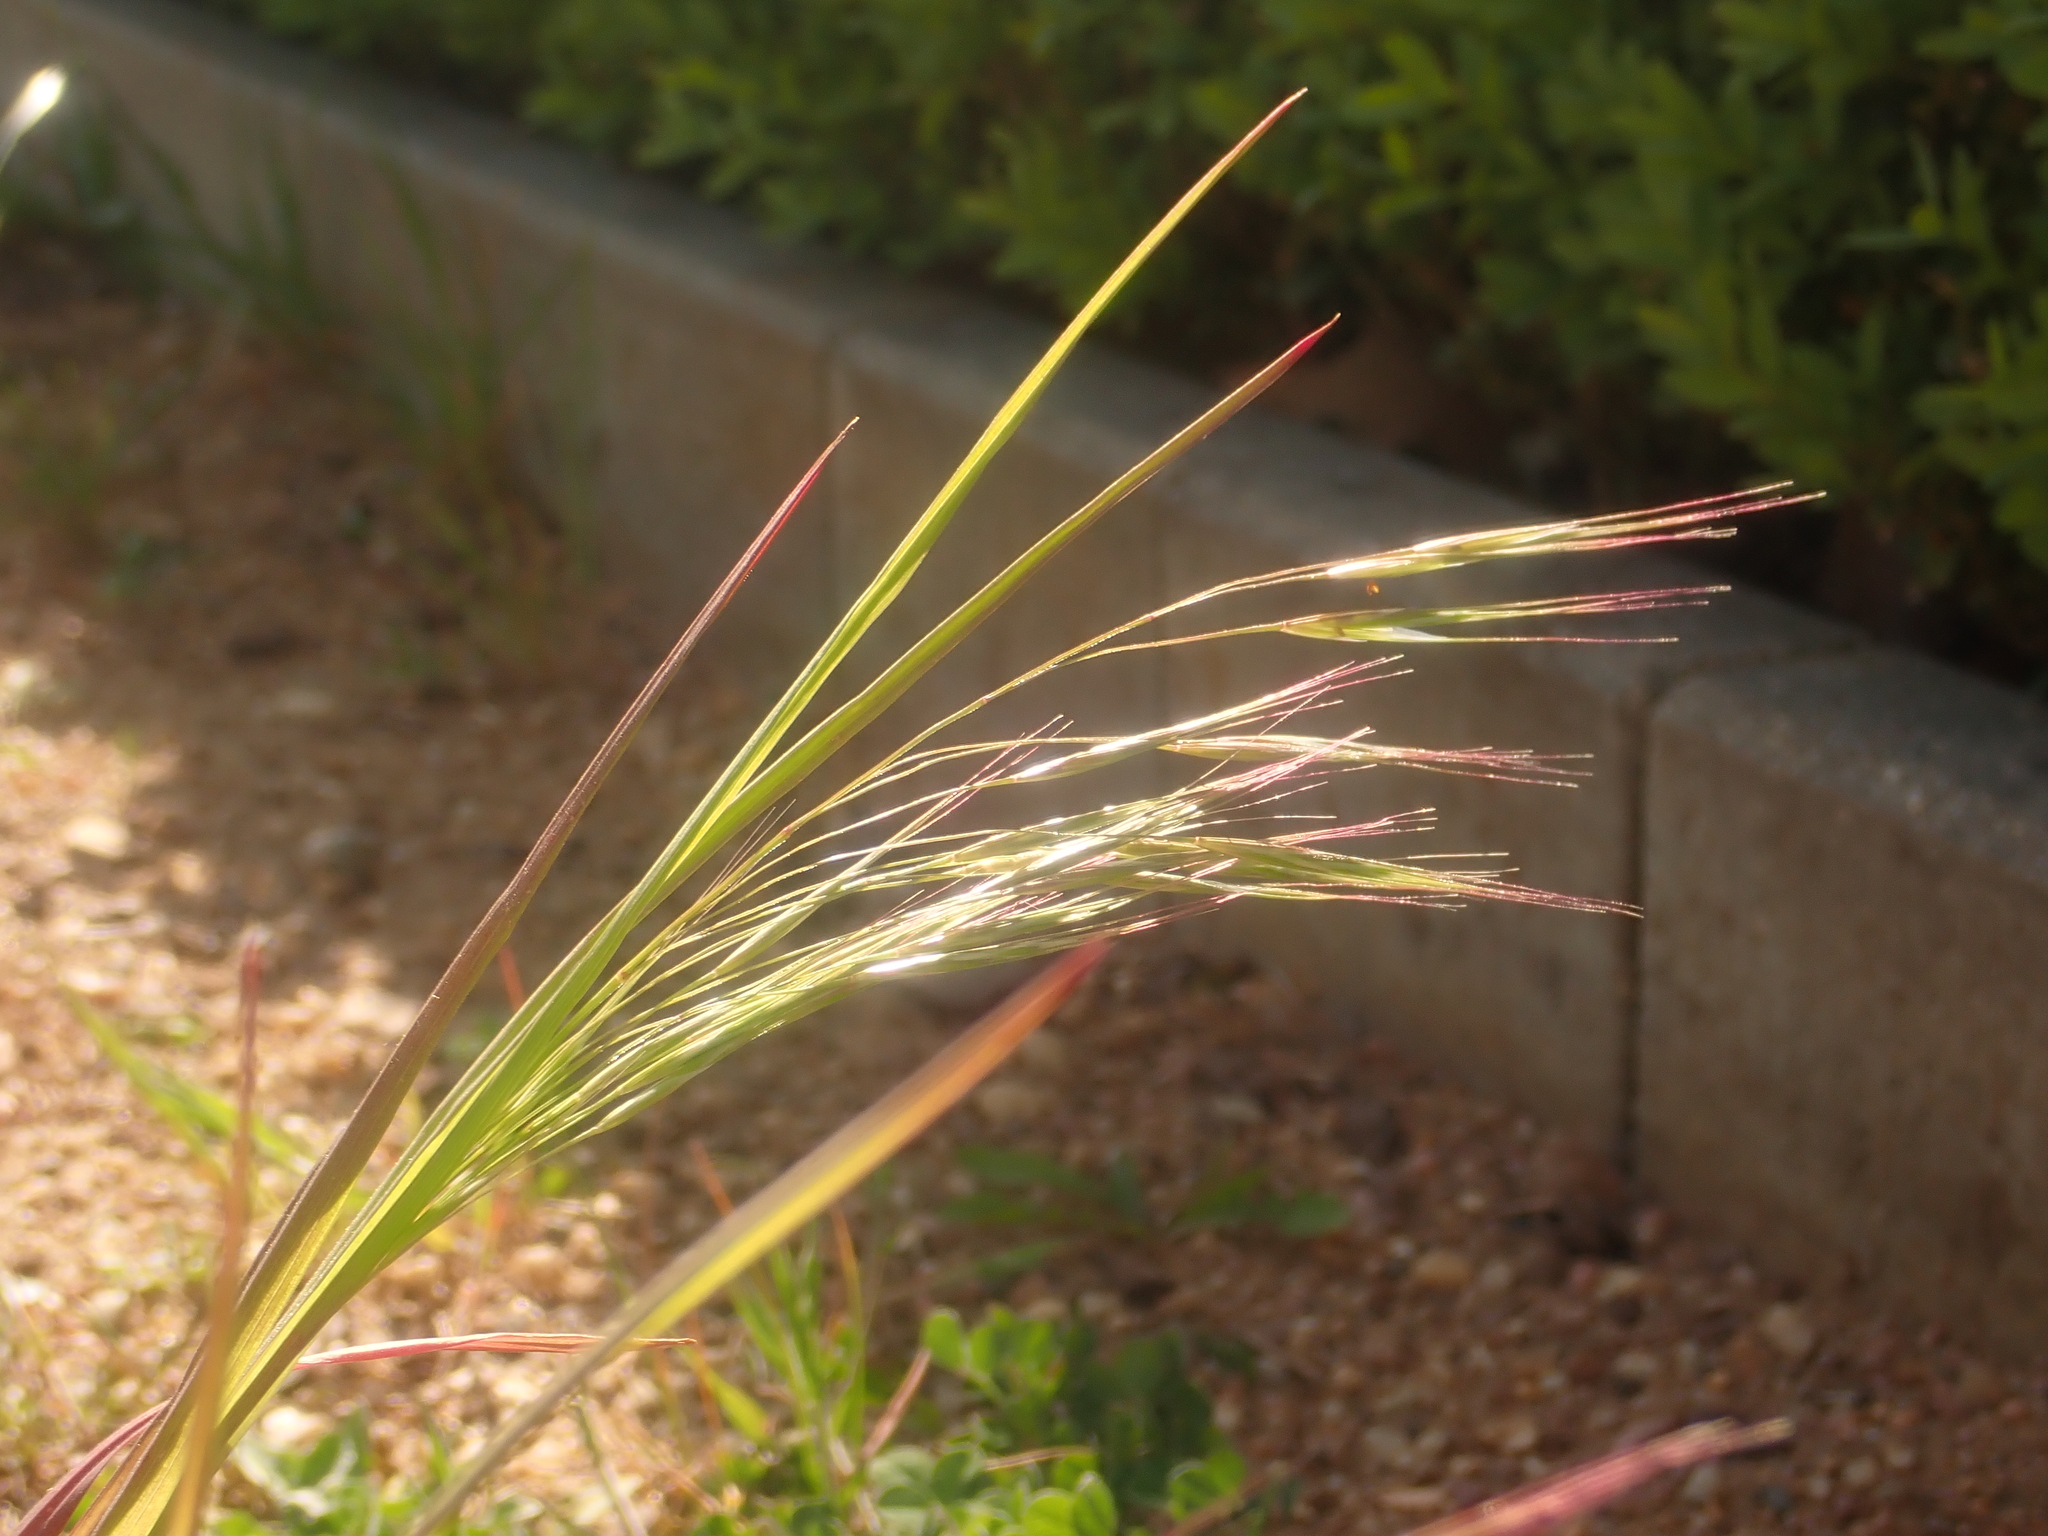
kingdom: Plantae
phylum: Tracheophyta
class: Liliopsida
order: Poales
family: Poaceae
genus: Bromus
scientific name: Bromus sterilis
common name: Poverty brome
